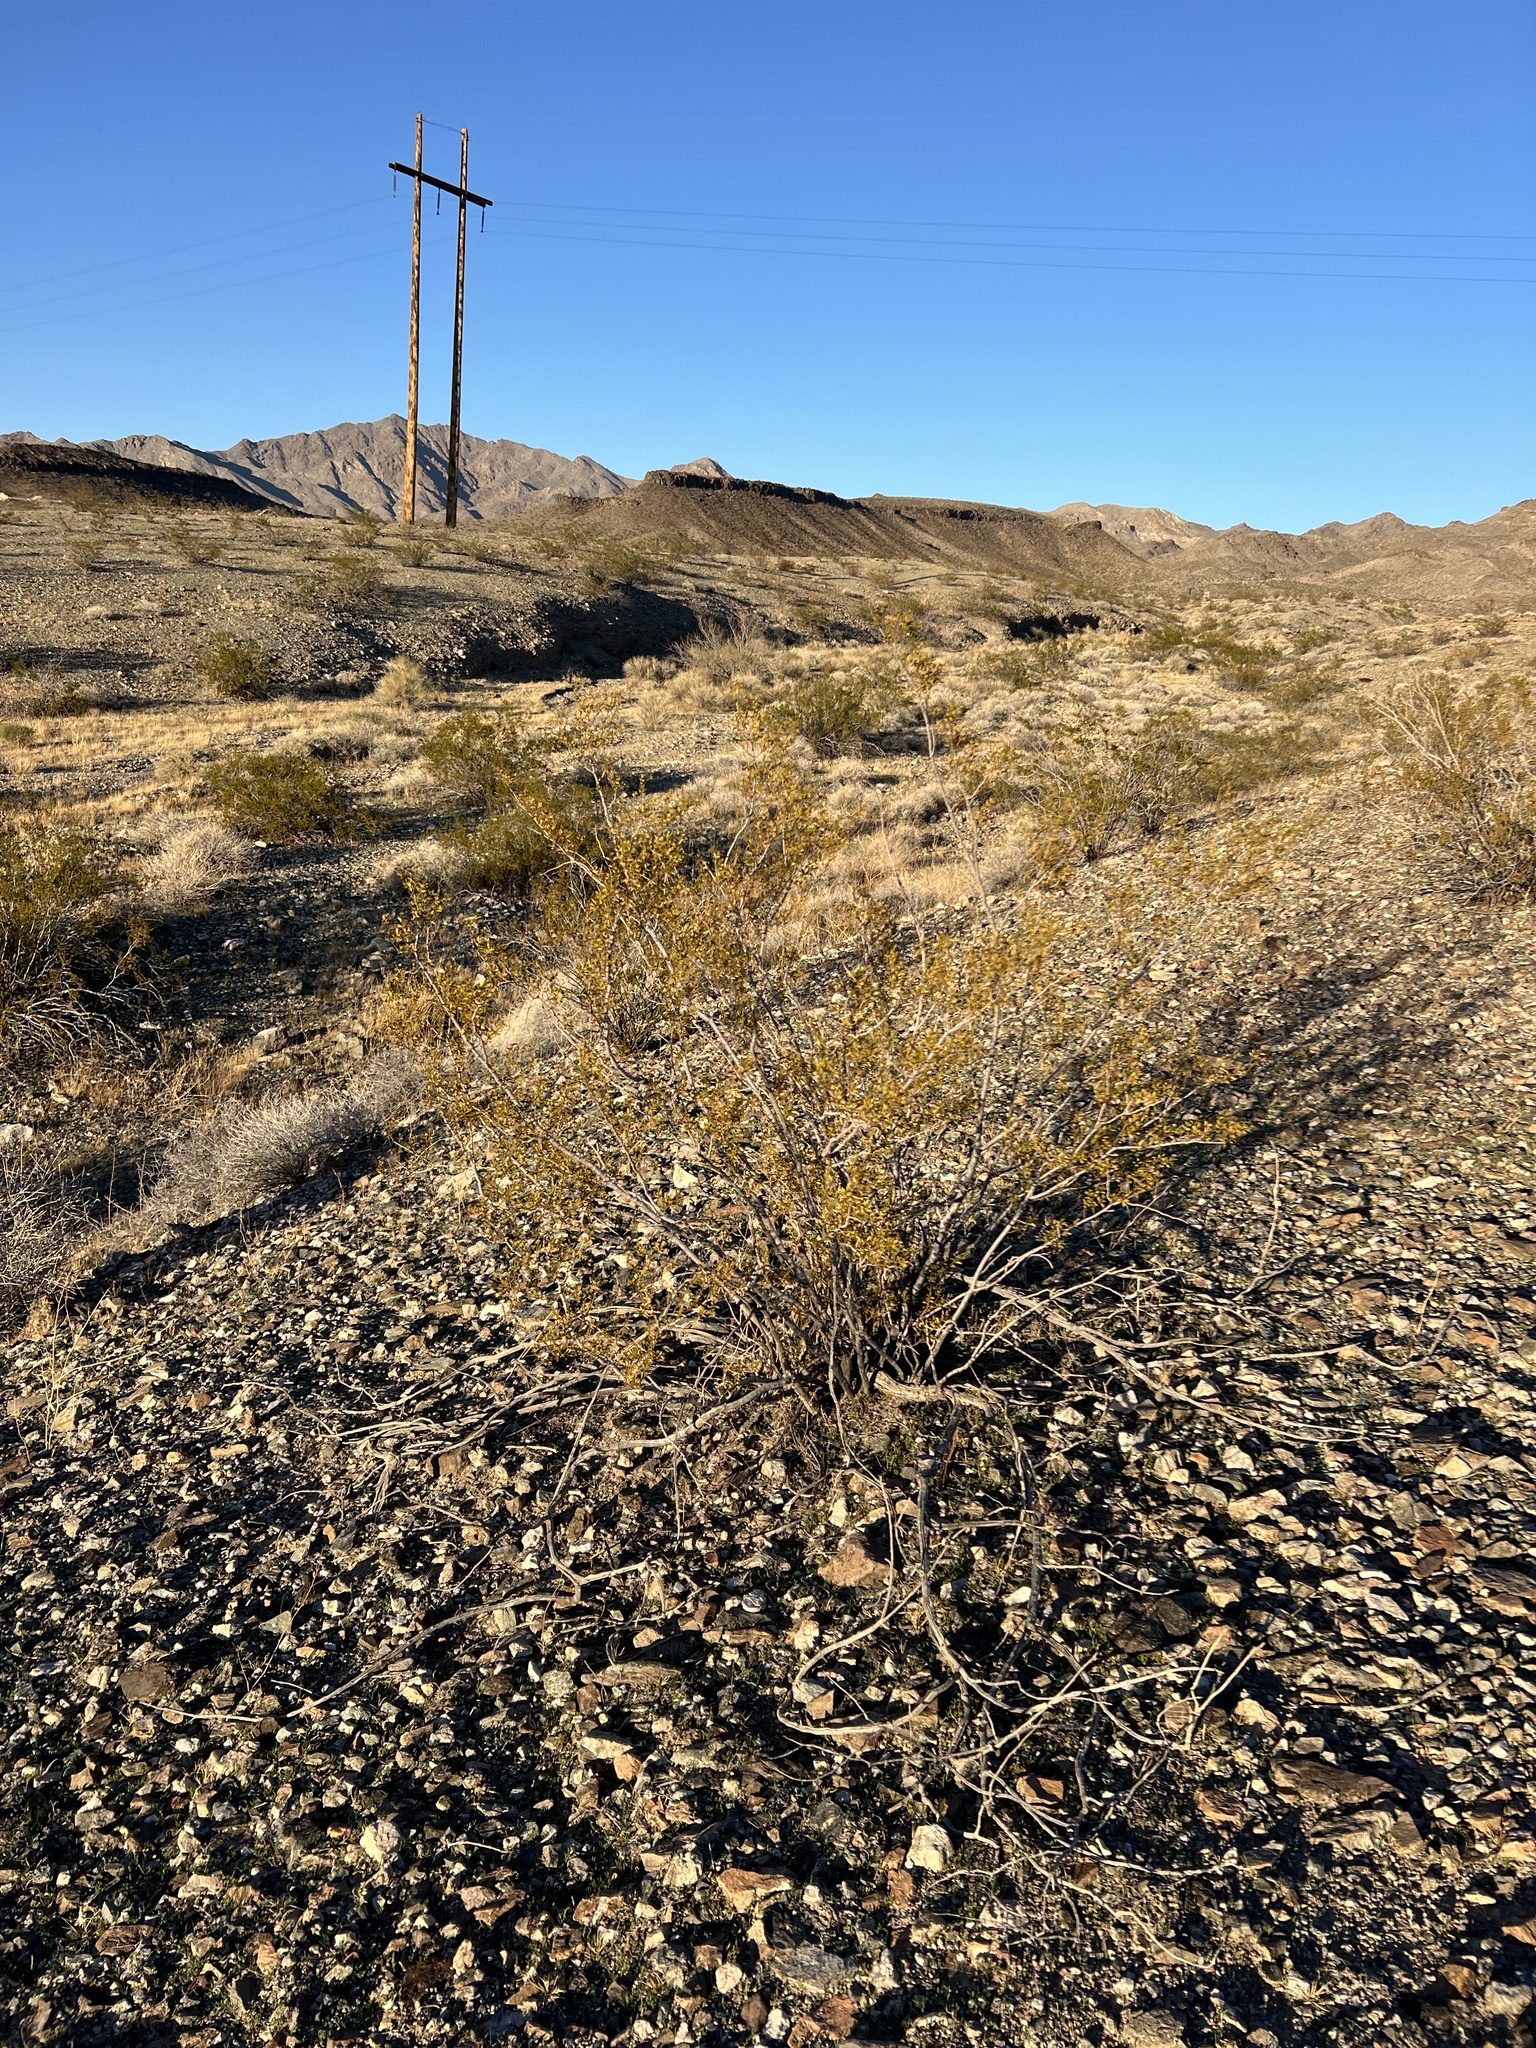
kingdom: Plantae
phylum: Tracheophyta
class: Magnoliopsida
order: Zygophyllales
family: Zygophyllaceae
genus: Larrea
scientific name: Larrea tridentata
